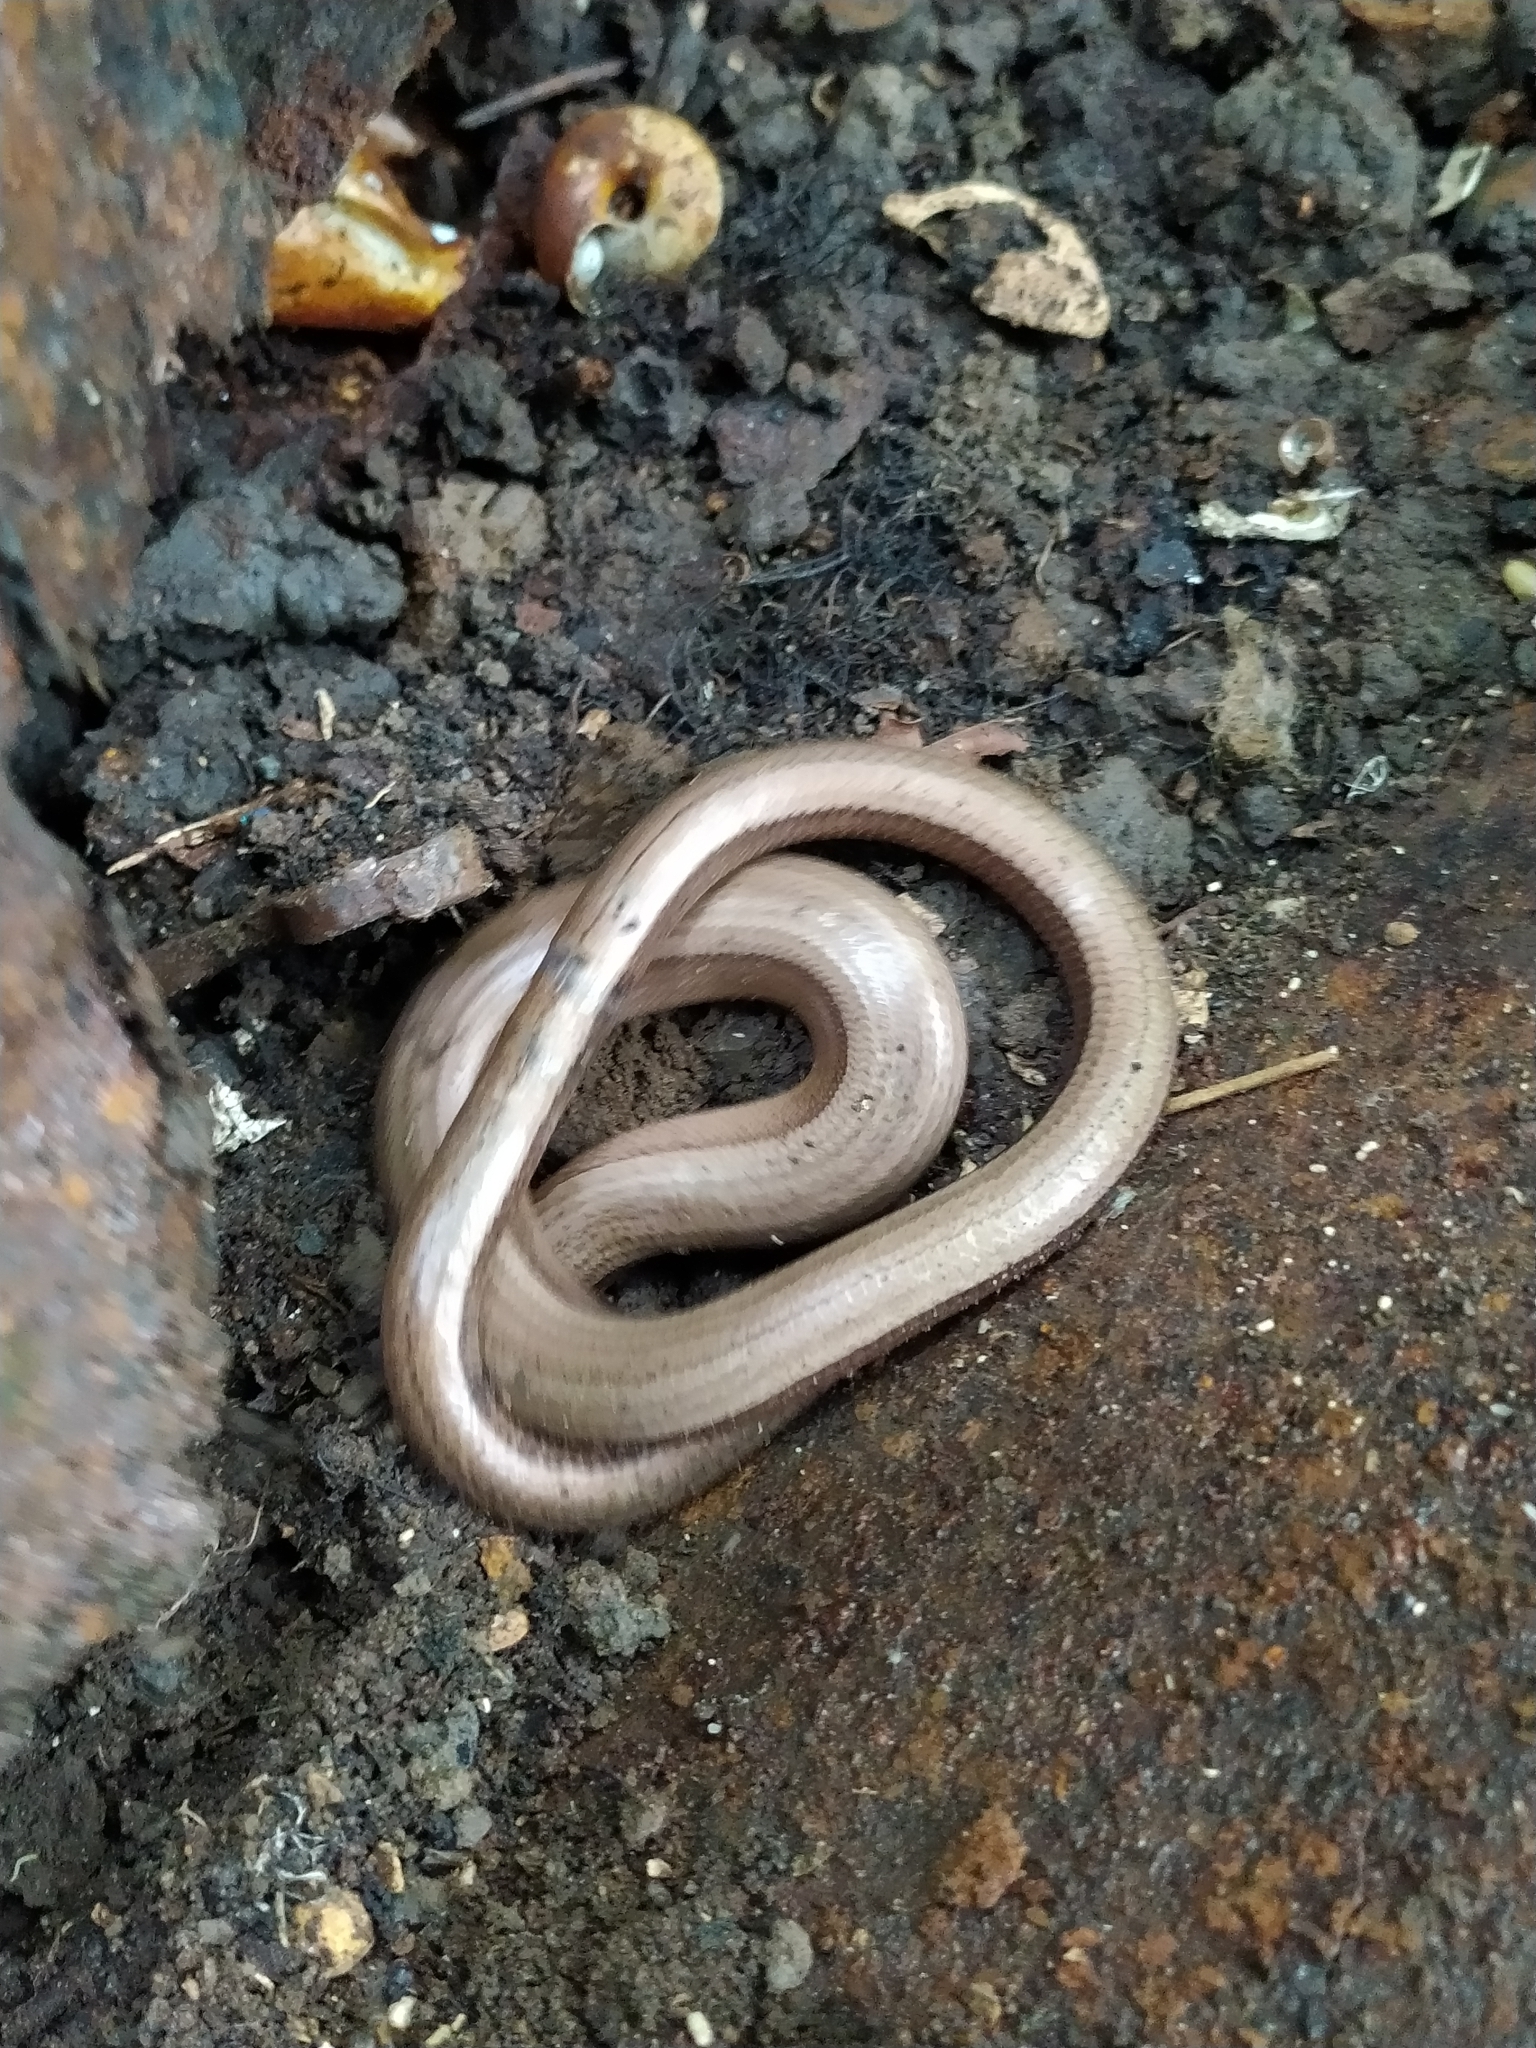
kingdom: Animalia
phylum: Chordata
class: Squamata
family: Anguidae
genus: Anguis
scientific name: Anguis fragilis
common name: Slow worm
